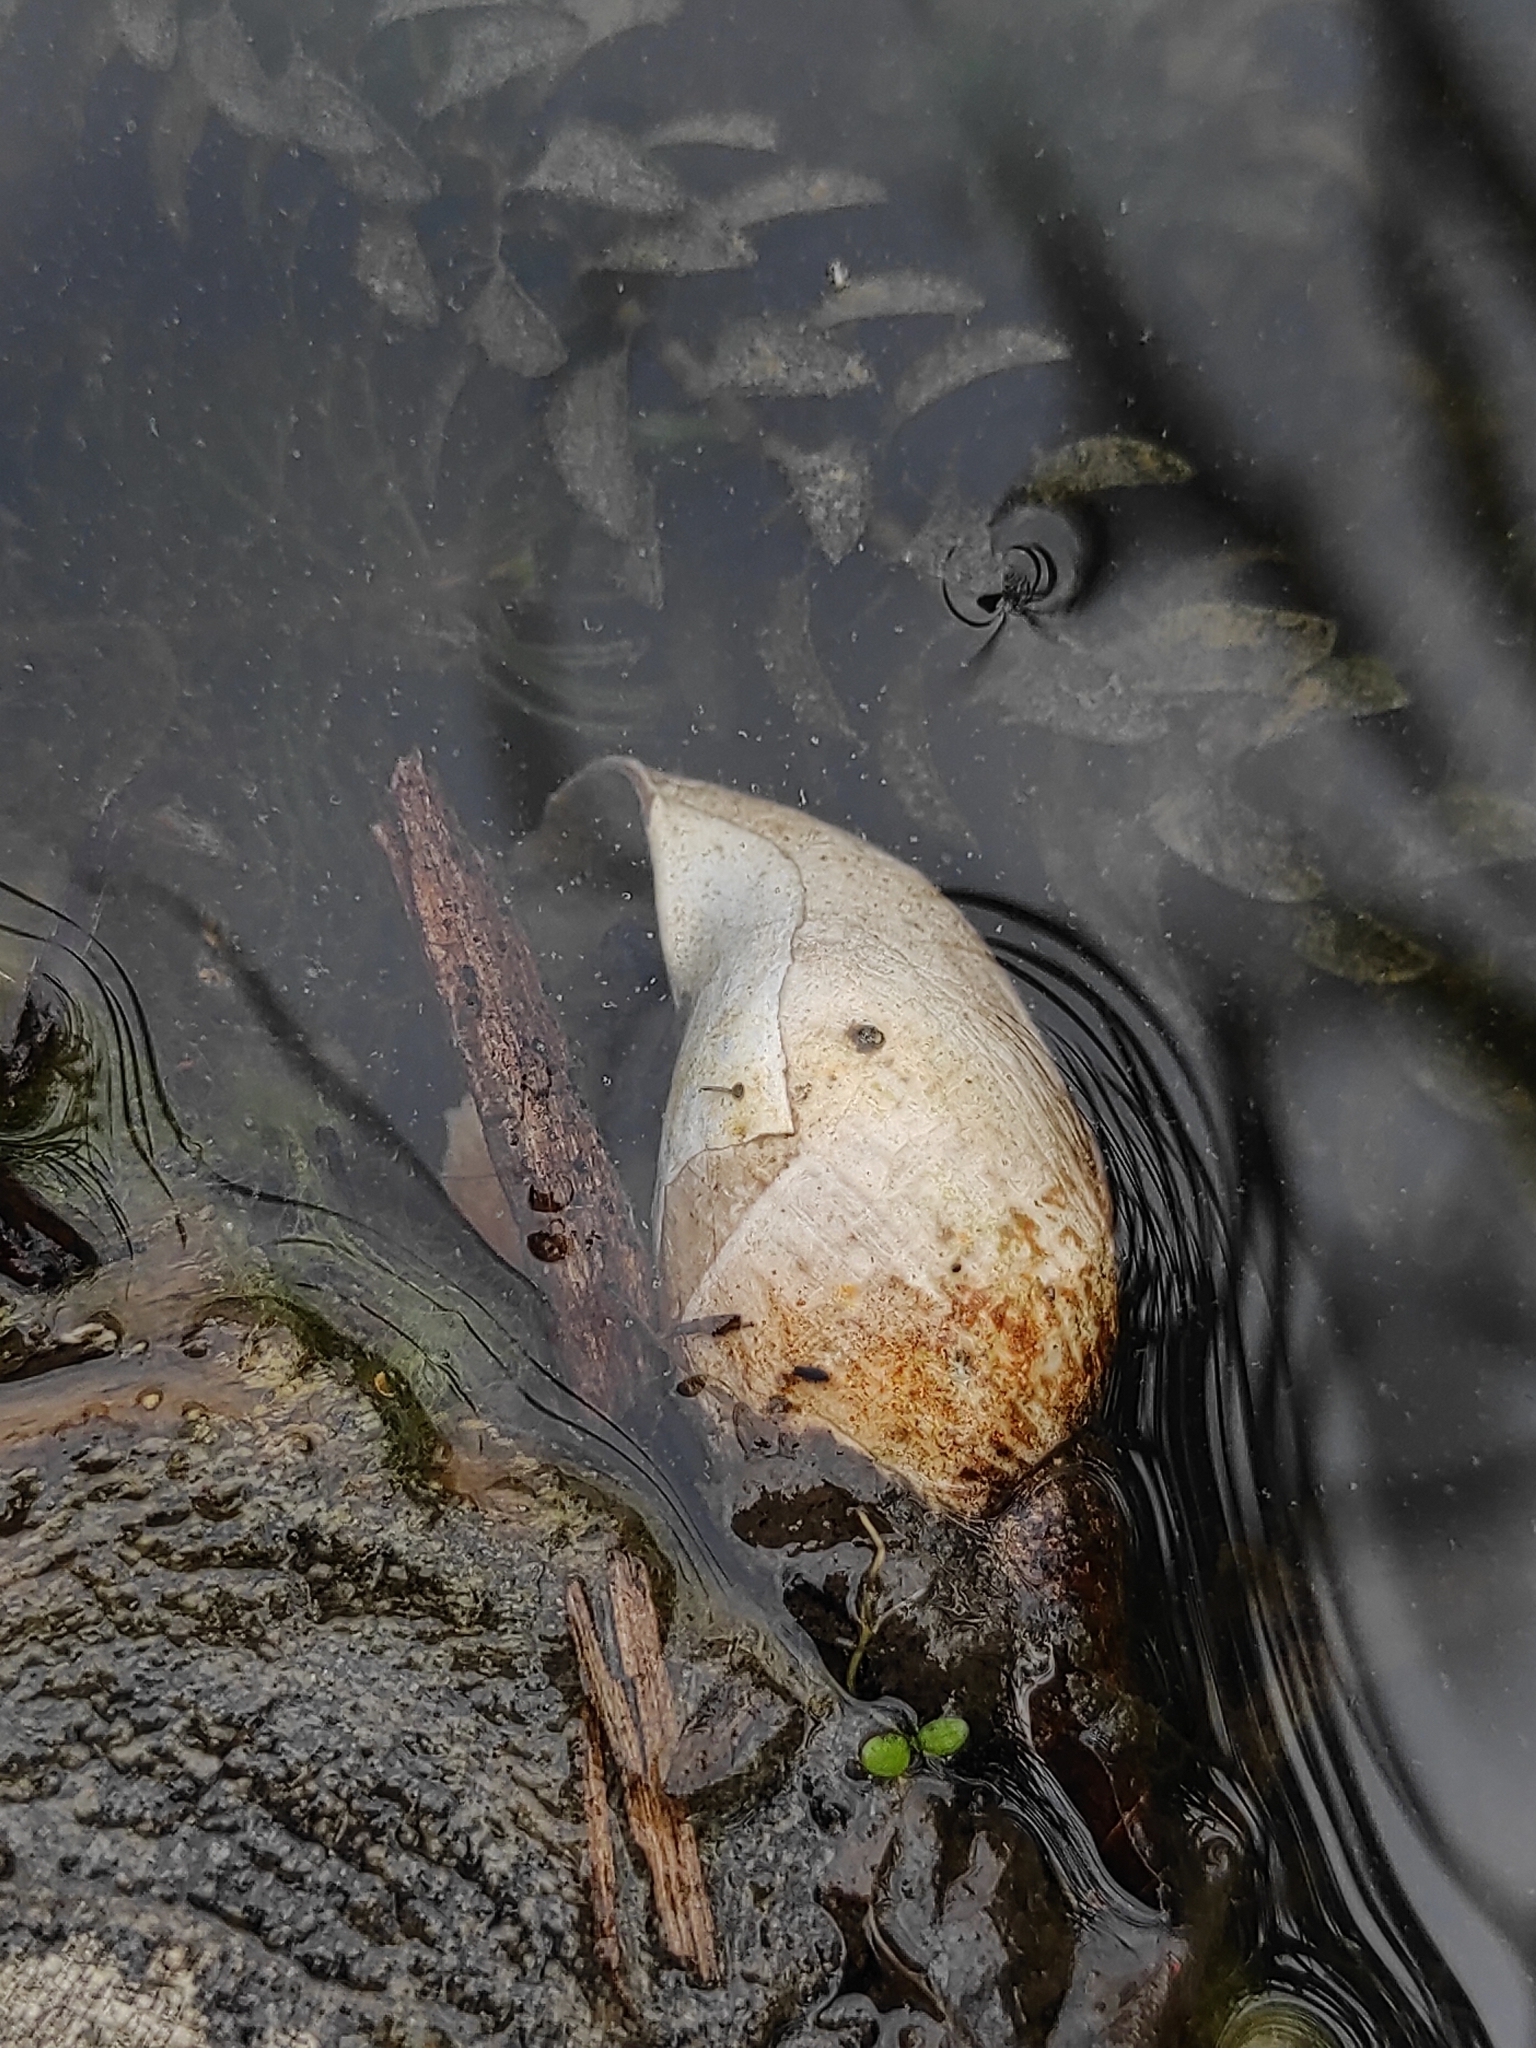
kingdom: Animalia
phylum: Mollusca
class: Gastropoda
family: Lymnaeidae
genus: Lymnaea
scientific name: Lymnaea stagnalis
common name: Great pond snail
